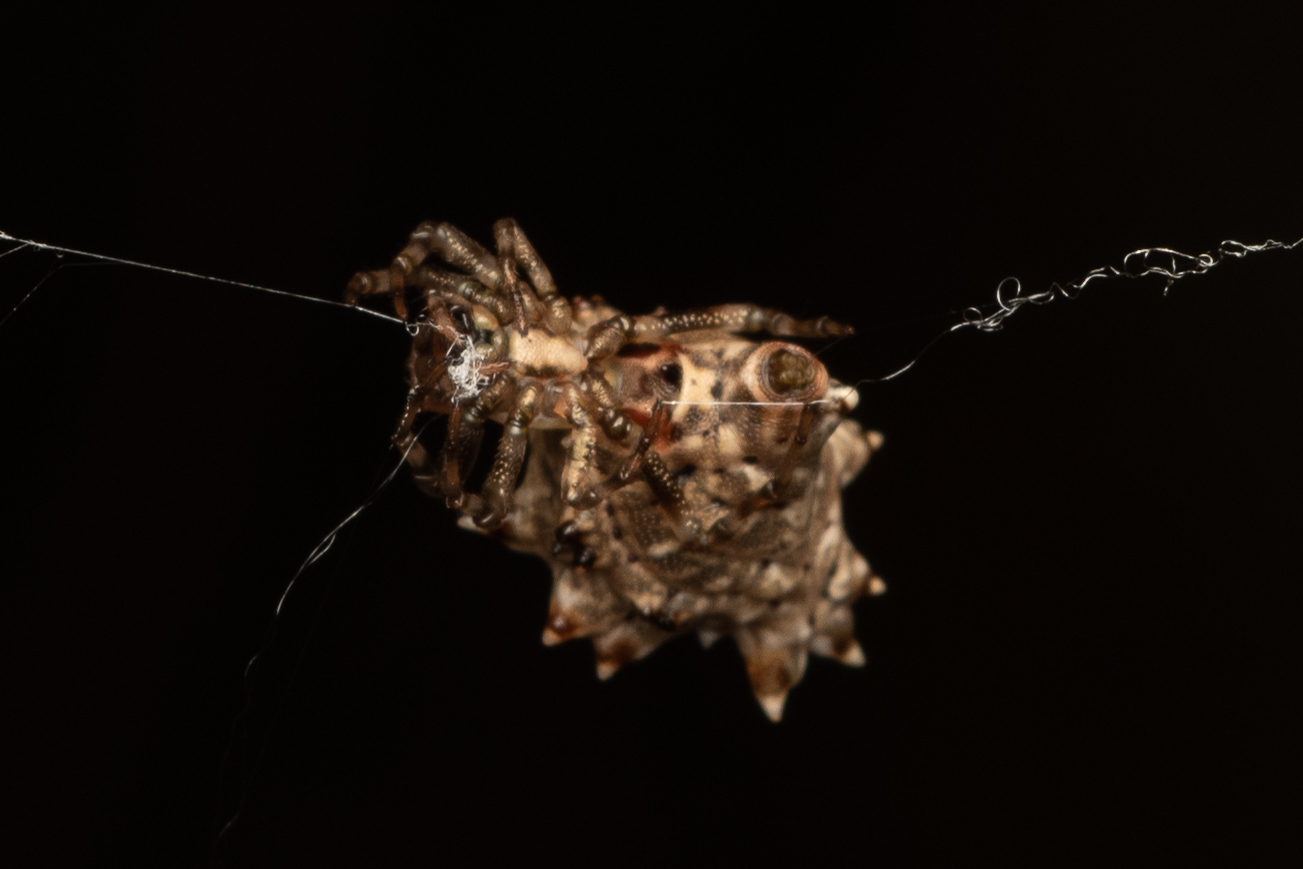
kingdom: Animalia
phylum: Arthropoda
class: Arachnida
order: Araneae
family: Araneidae
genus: Micrathena
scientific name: Micrathena horrida
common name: Orb weavers
